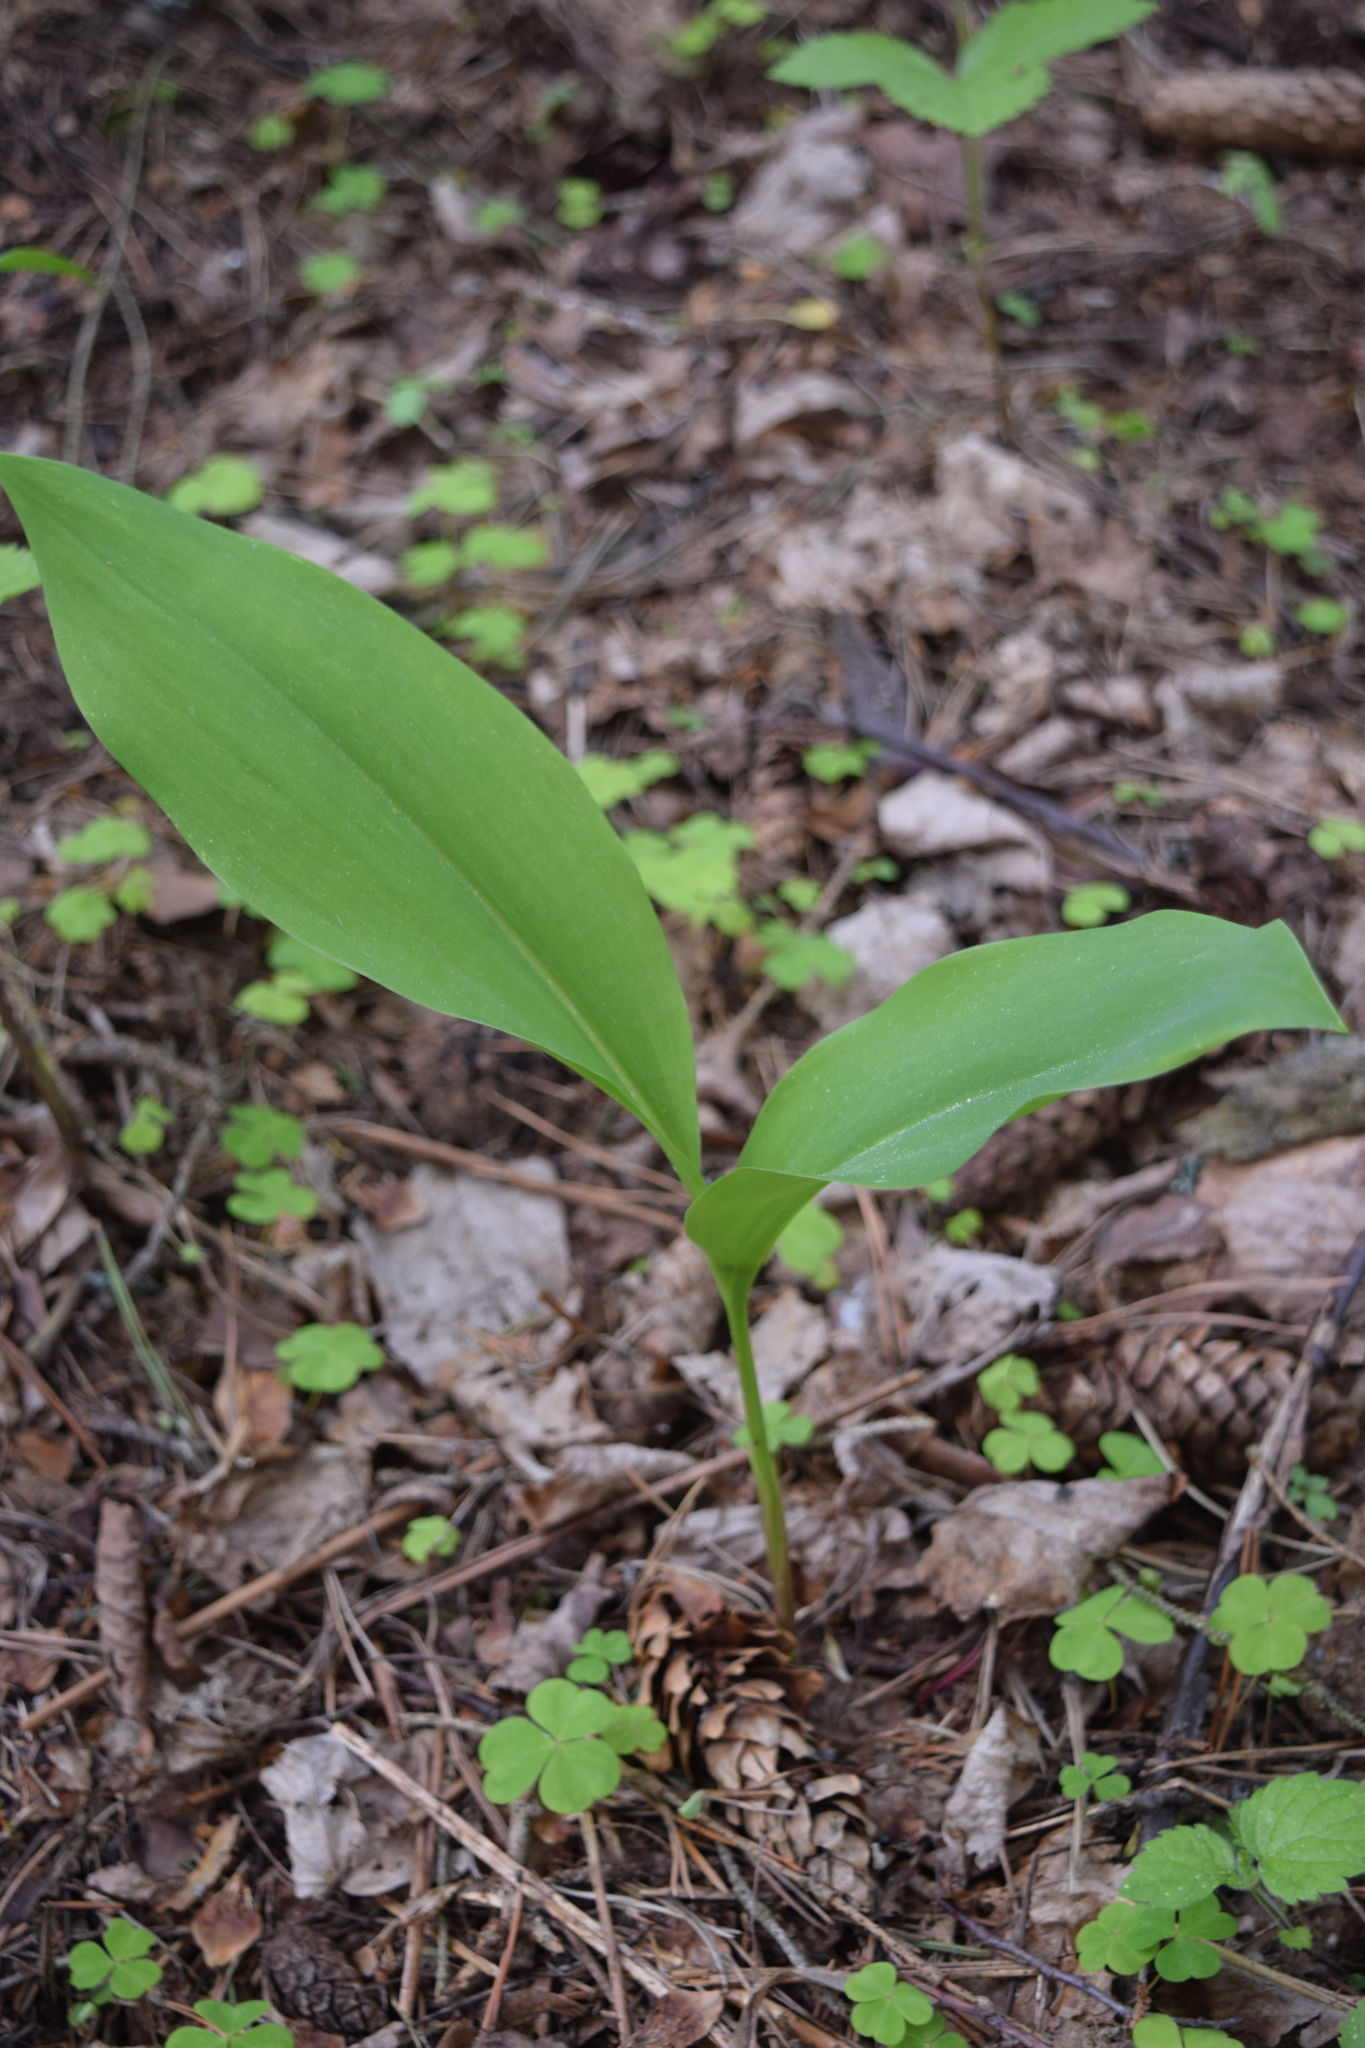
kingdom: Plantae
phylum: Tracheophyta
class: Liliopsida
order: Asparagales
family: Asparagaceae
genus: Convallaria
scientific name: Convallaria majalis
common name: Lily-of-the-valley
